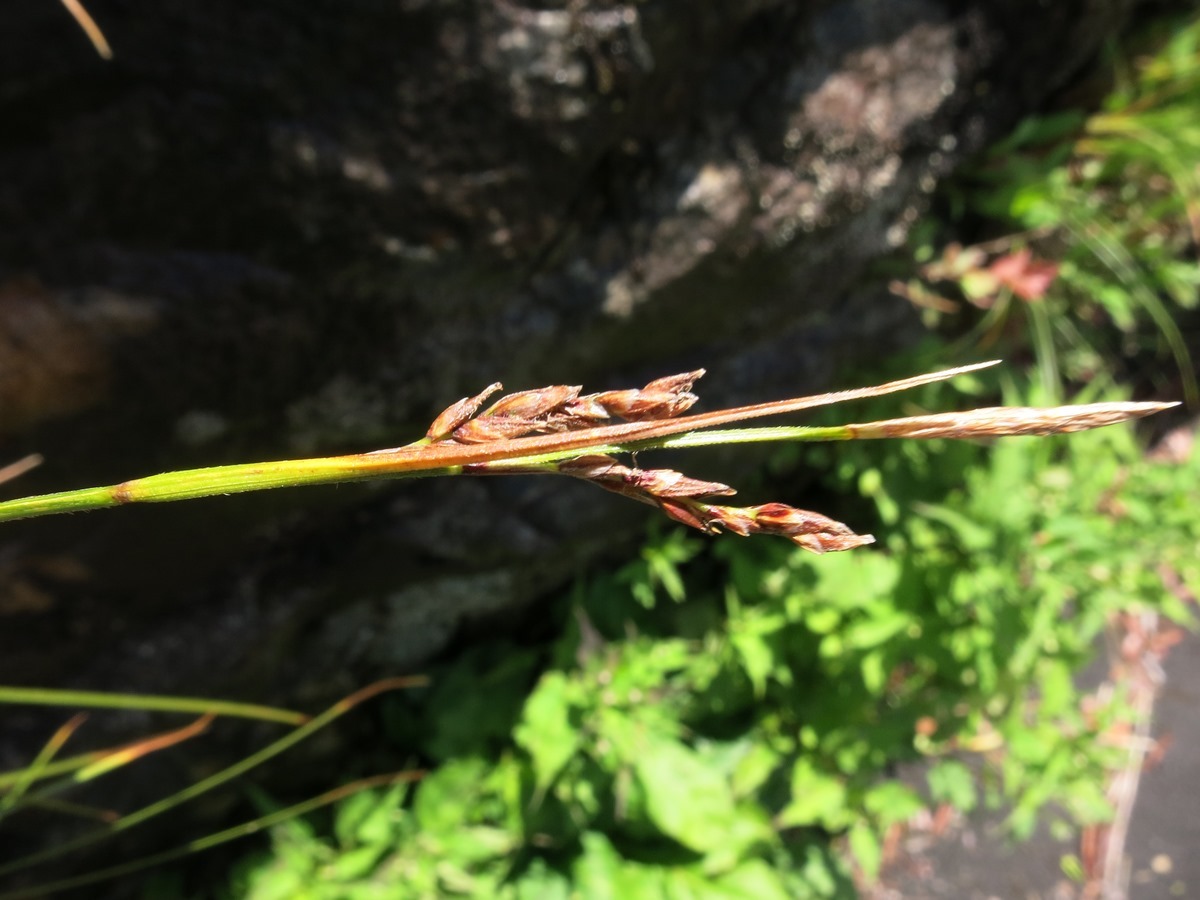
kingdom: Plantae
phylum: Tracheophyta
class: Liliopsida
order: Poales
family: Cyperaceae
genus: Carex
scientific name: Carex misera
